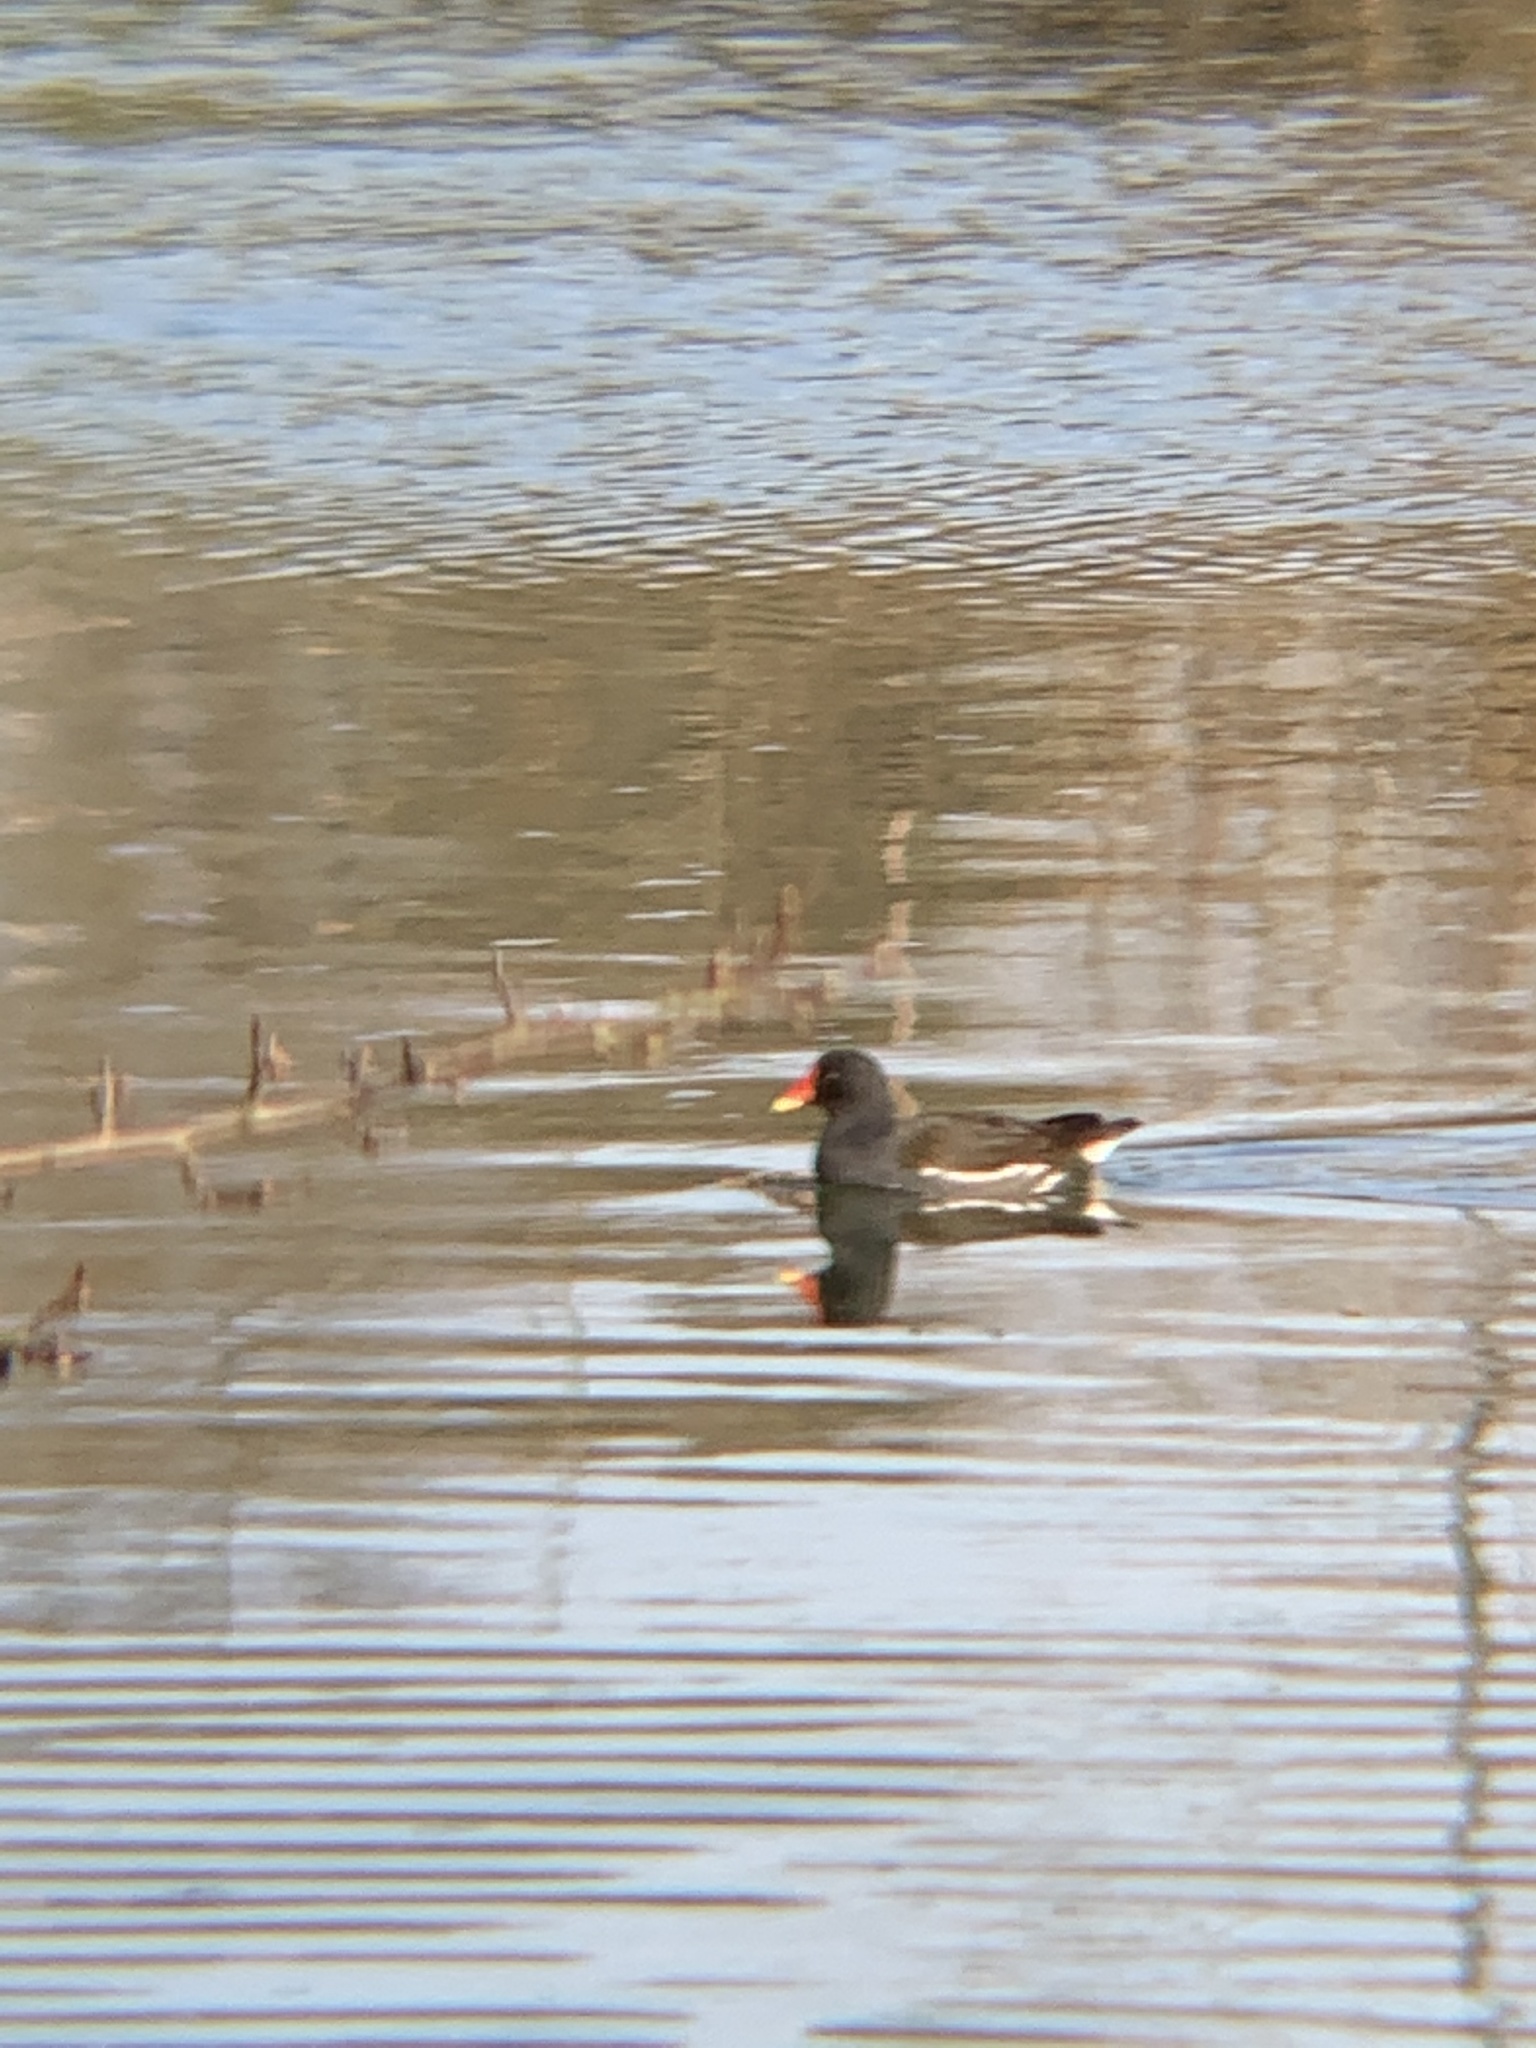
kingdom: Animalia
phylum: Chordata
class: Aves
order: Gruiformes
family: Rallidae
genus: Gallinula
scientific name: Gallinula chloropus
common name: Common moorhen
